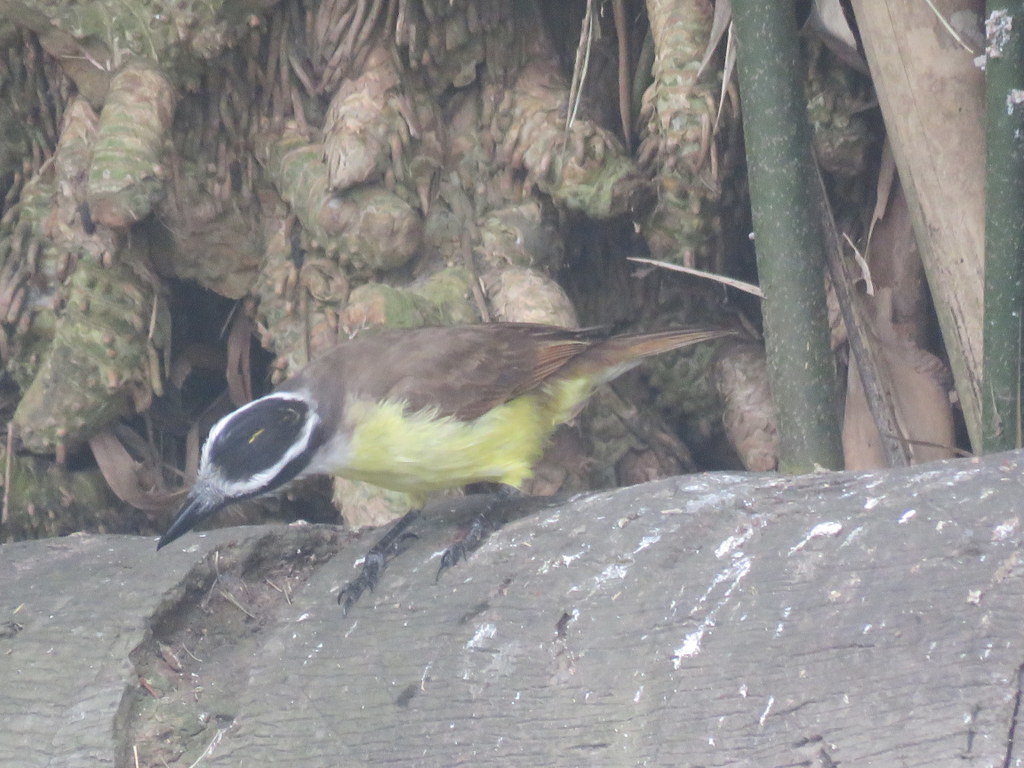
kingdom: Animalia
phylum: Chordata
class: Aves
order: Passeriformes
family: Tyrannidae
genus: Pitangus
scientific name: Pitangus sulphuratus
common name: Great kiskadee
